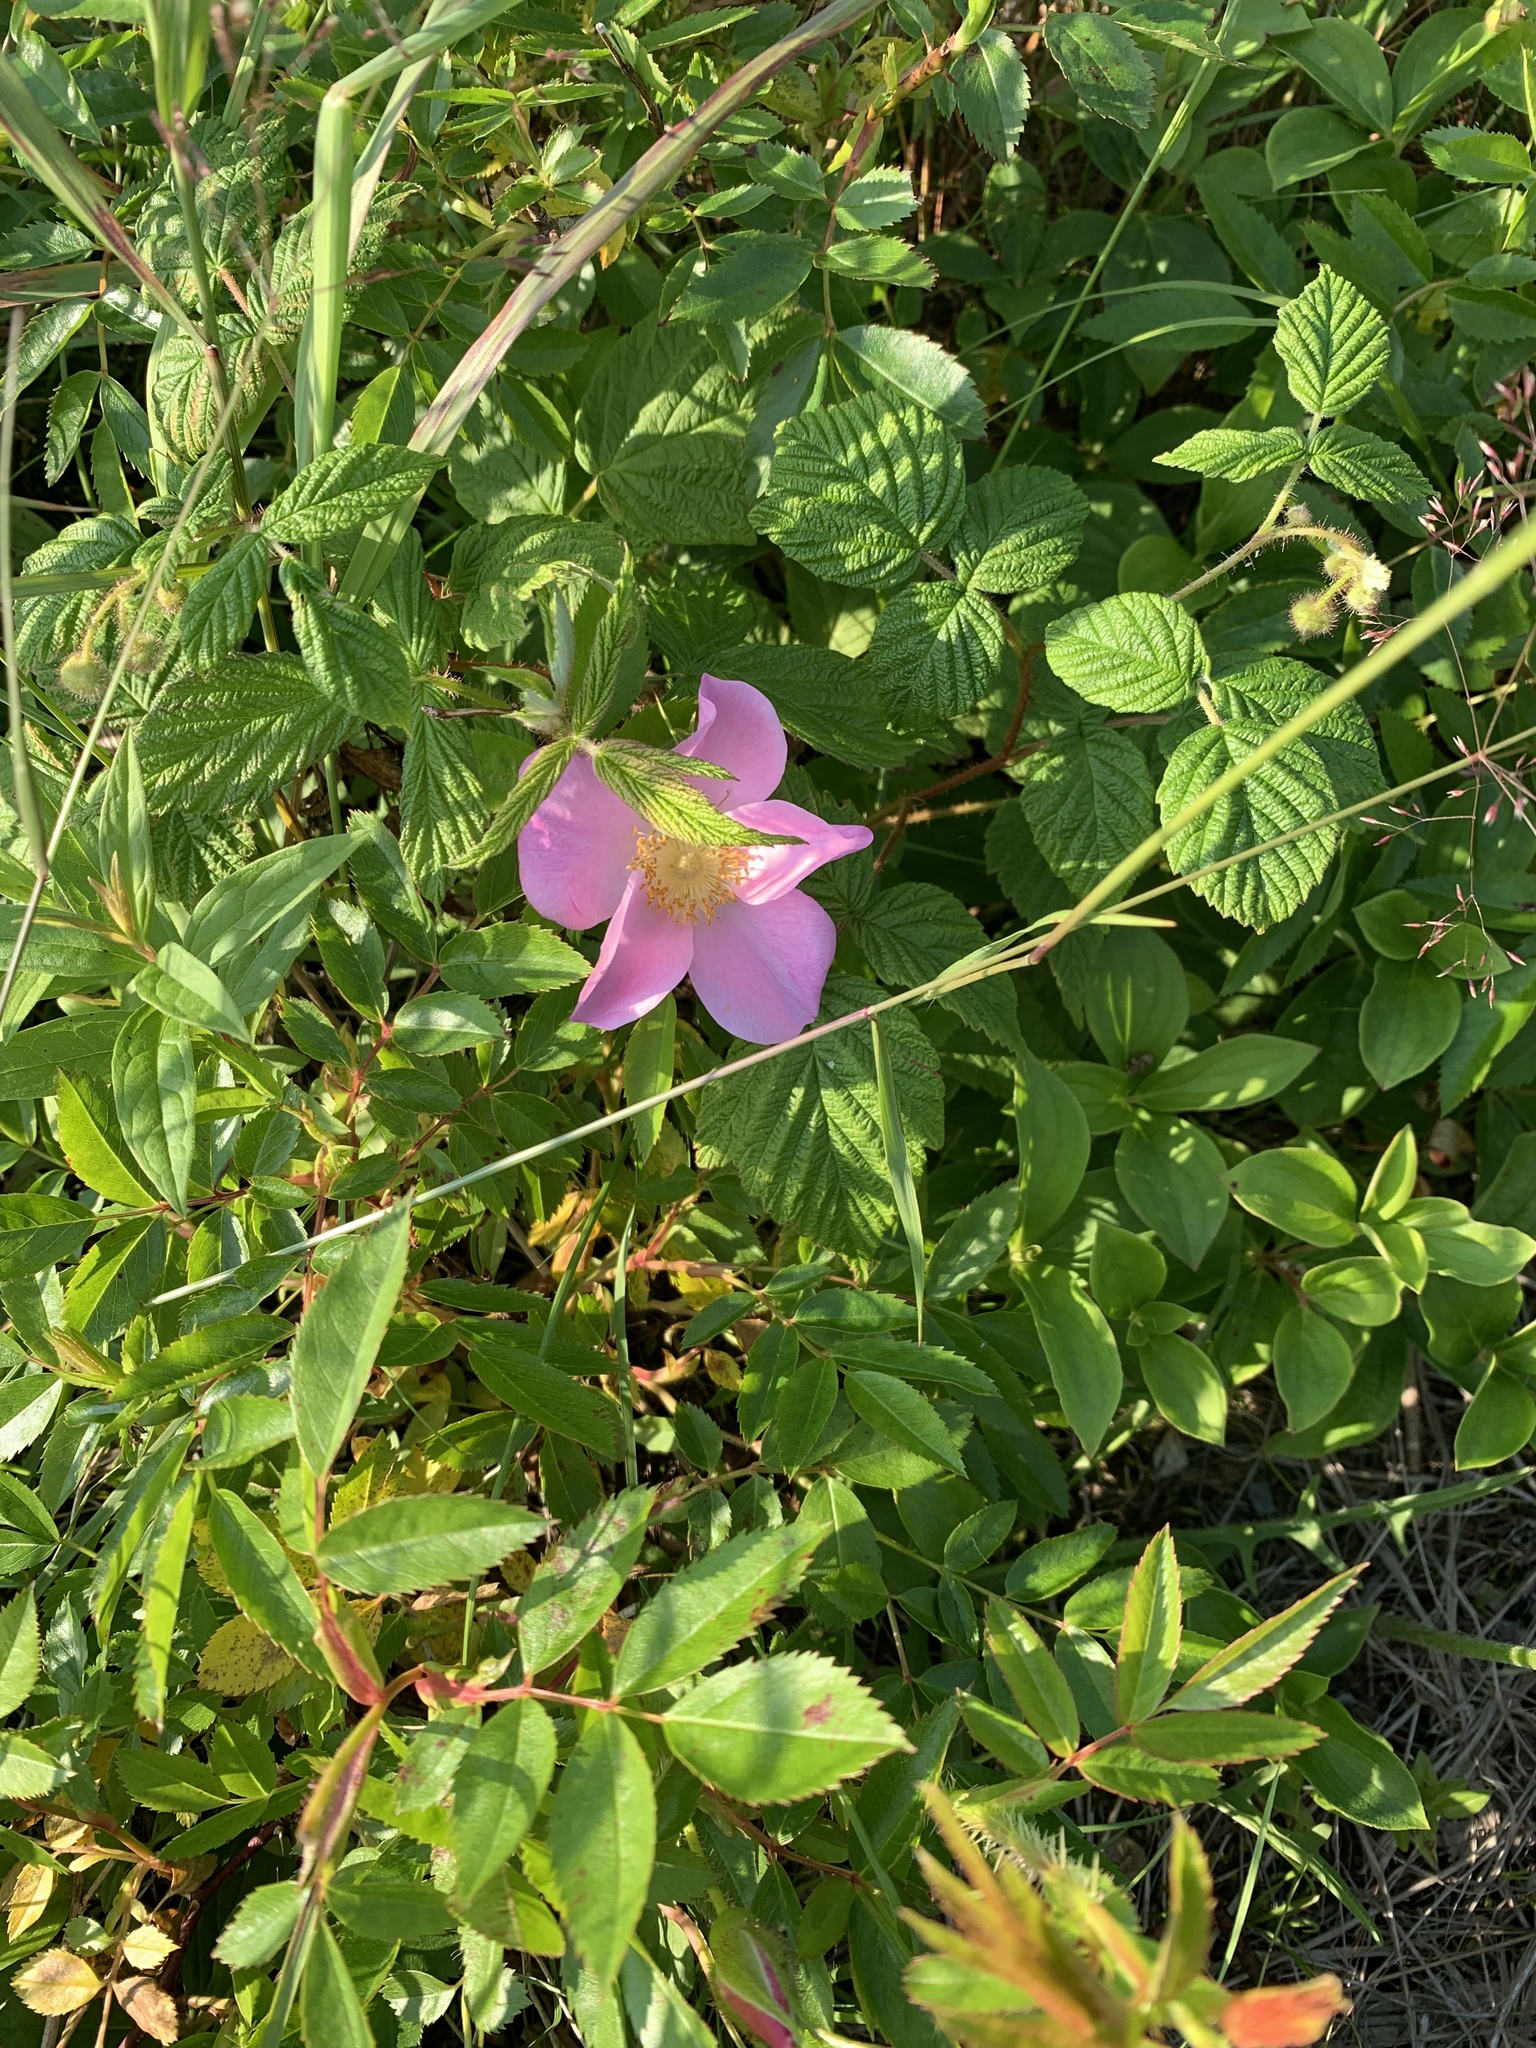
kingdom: Plantae
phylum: Tracheophyta
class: Magnoliopsida
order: Rosales
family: Rosaceae
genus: Rosa
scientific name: Rosa virginiana
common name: Virginian rose
